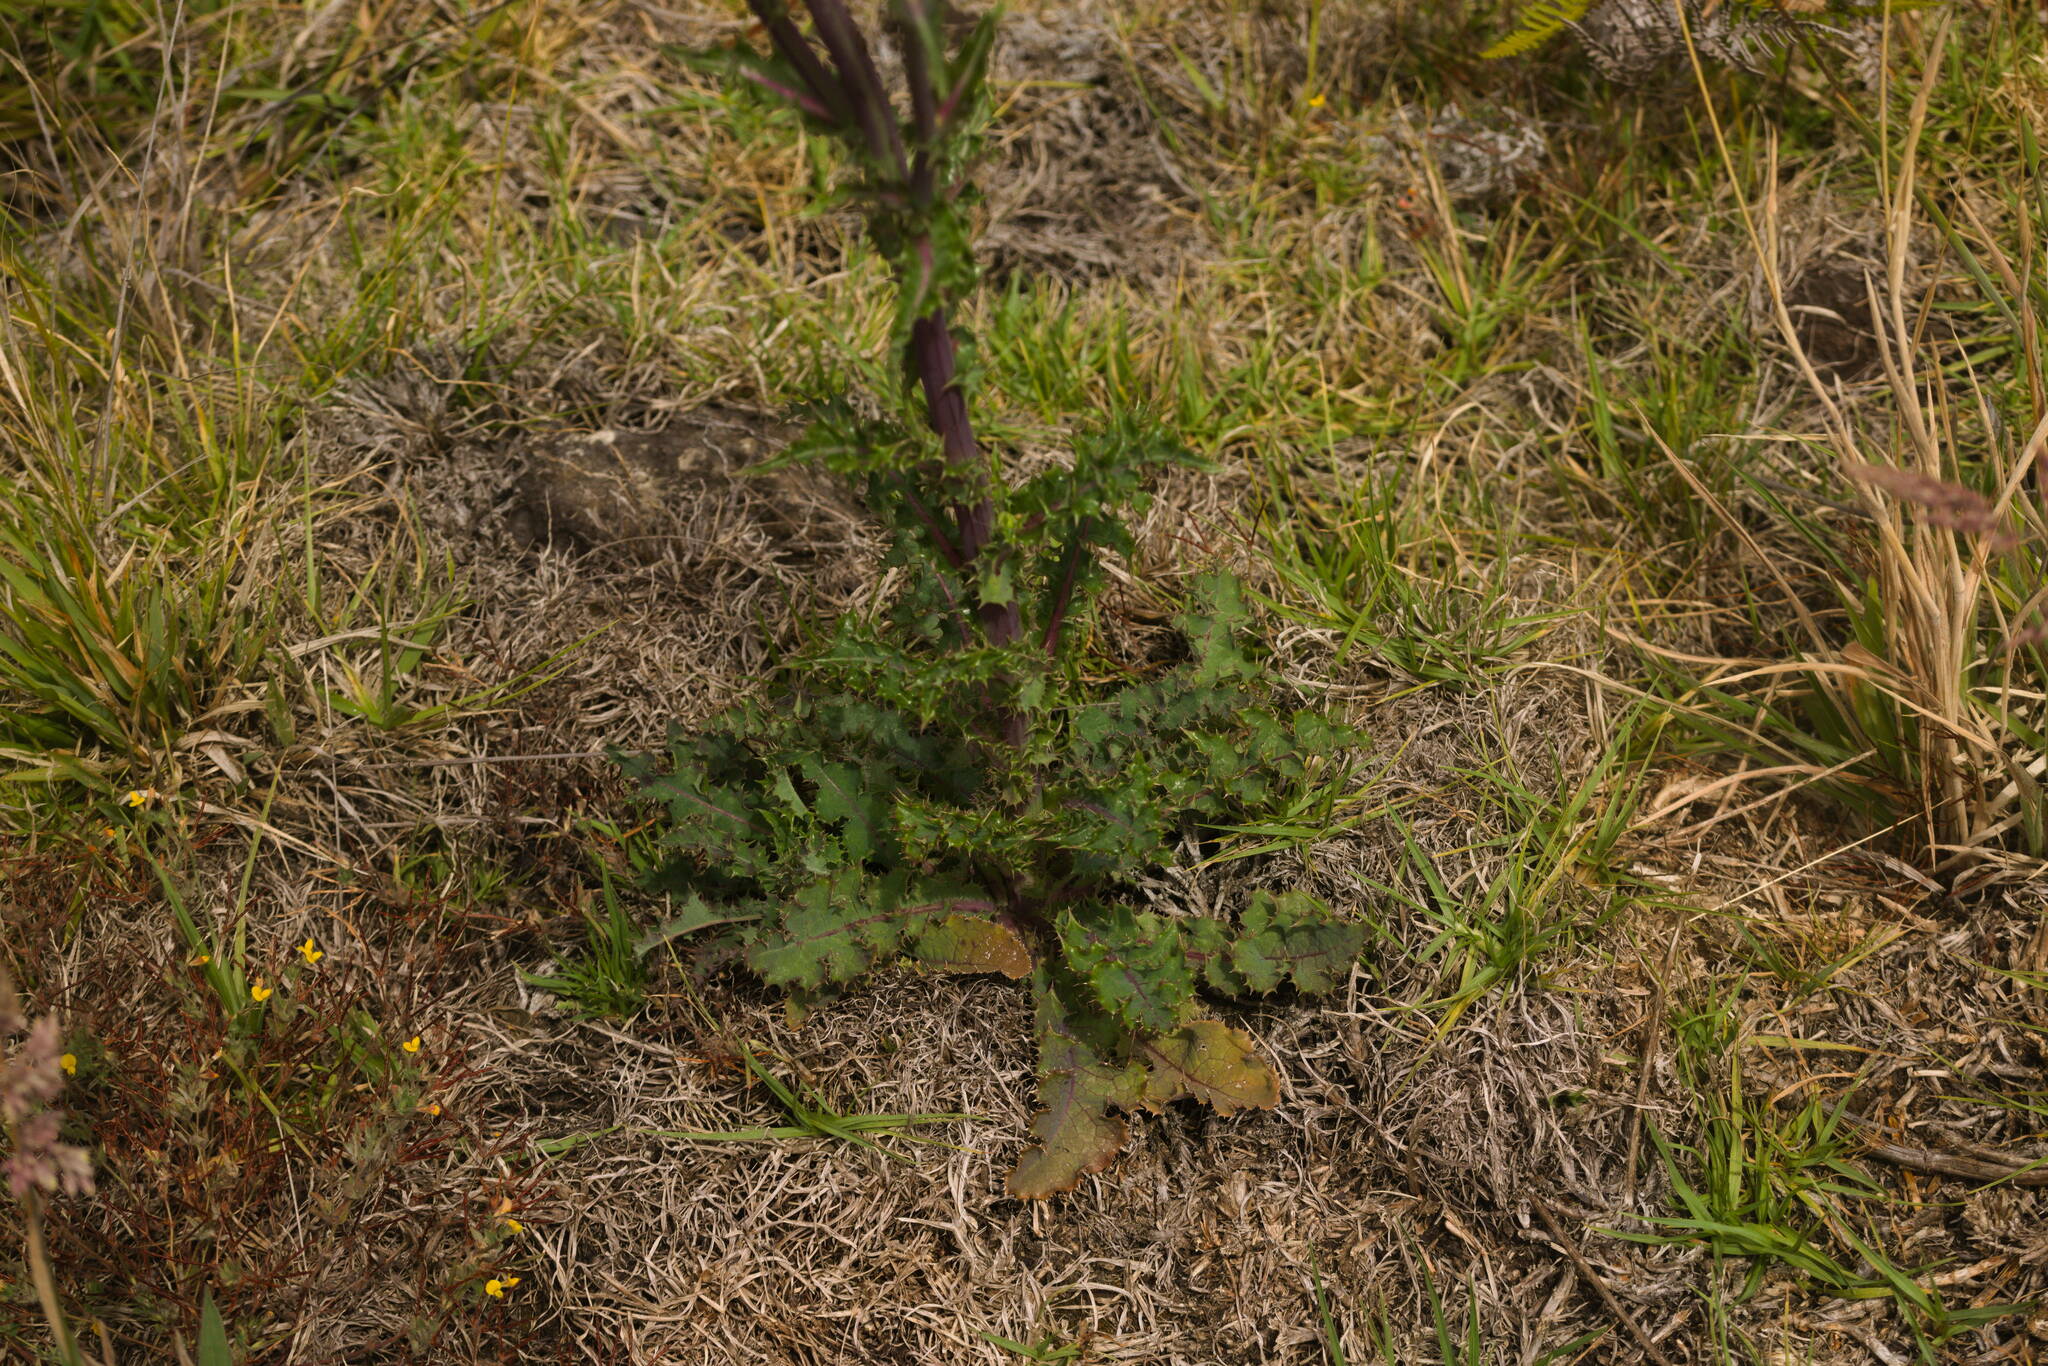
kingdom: Plantae
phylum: Tracheophyta
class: Magnoliopsida
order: Asterales
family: Asteraceae
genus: Sonchus
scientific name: Sonchus asper
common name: Prickly sow-thistle
